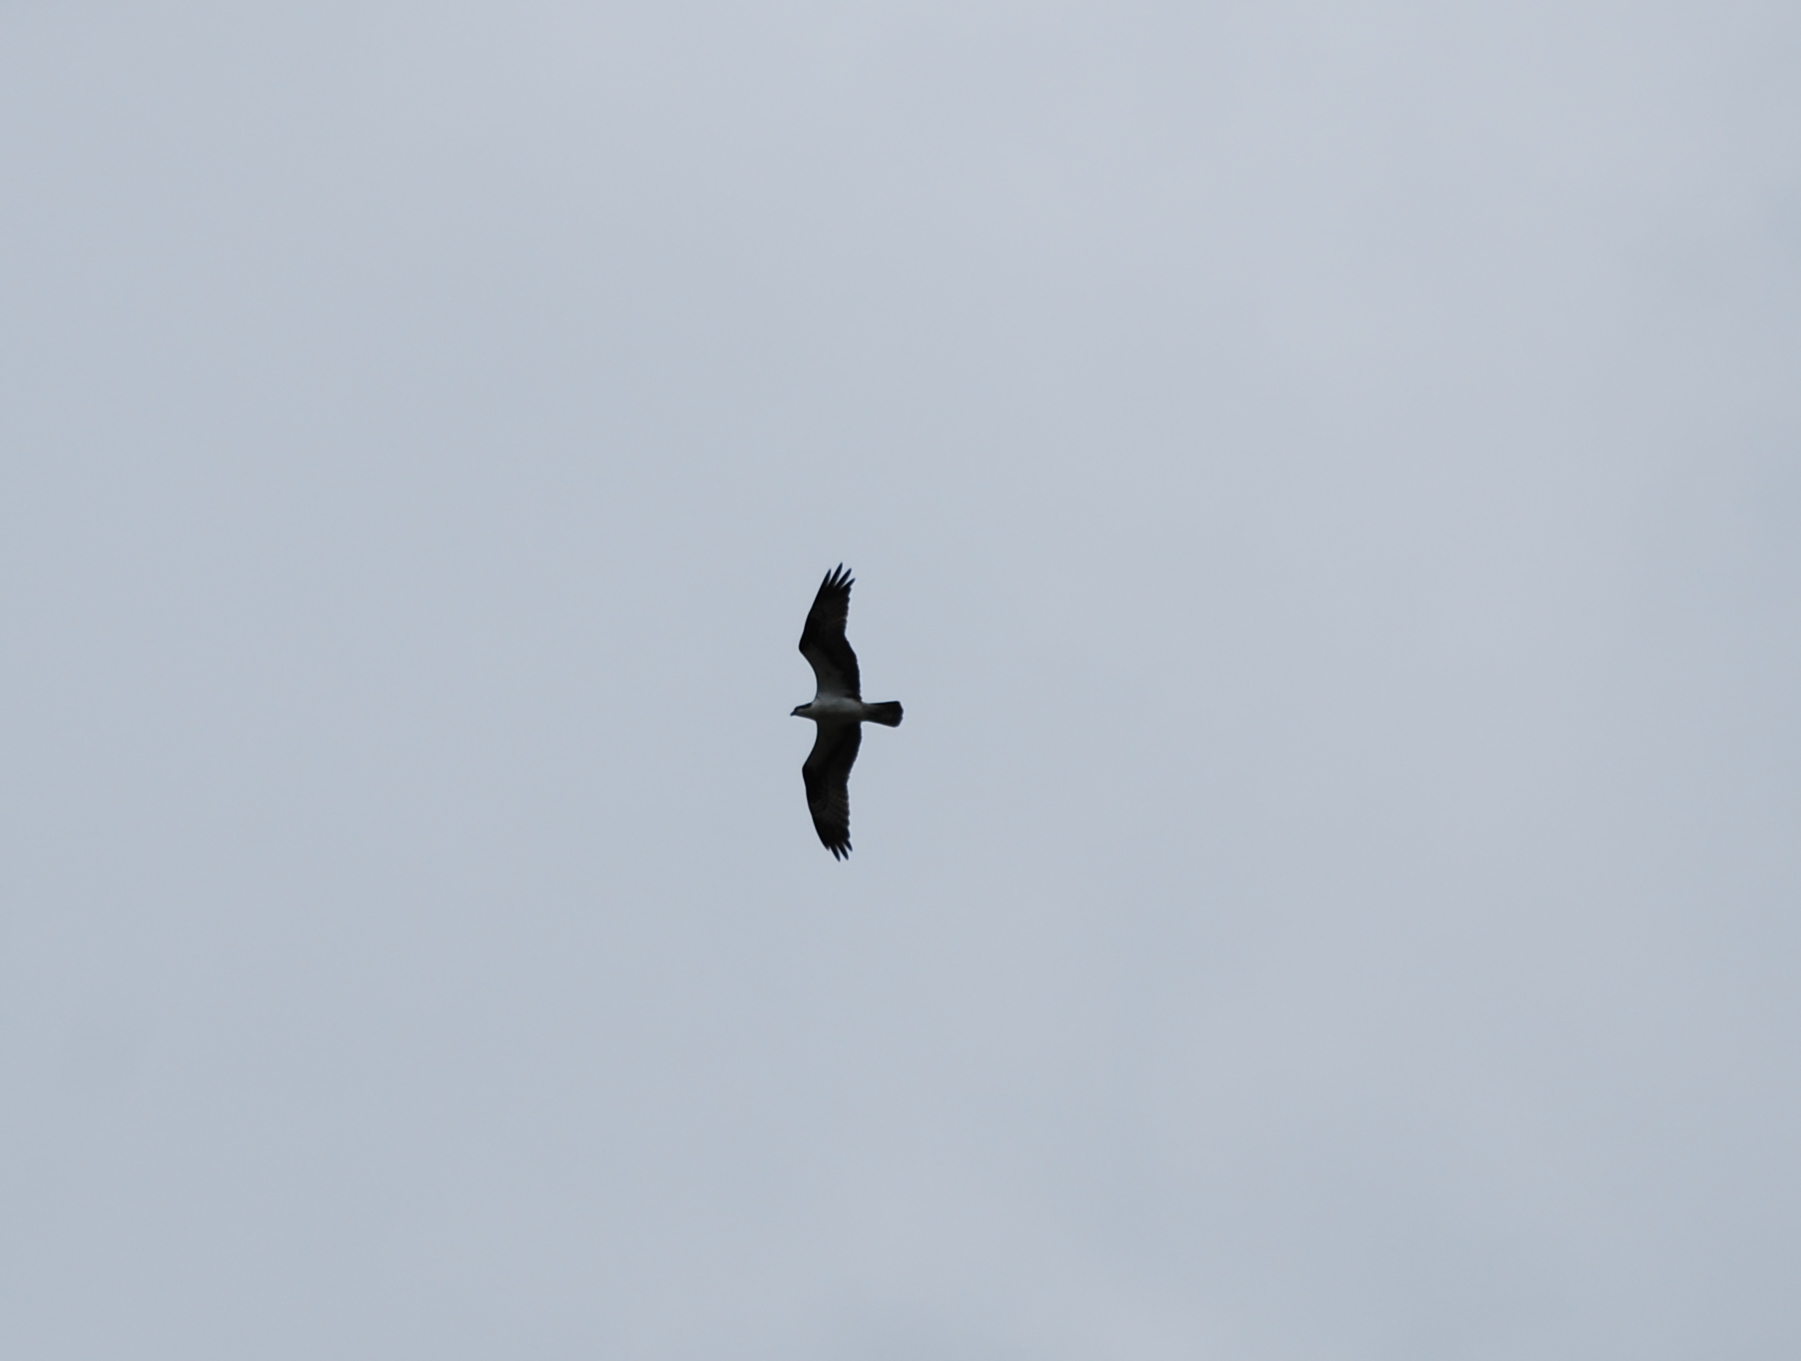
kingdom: Animalia
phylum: Chordata
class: Aves
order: Accipitriformes
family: Pandionidae
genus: Pandion
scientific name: Pandion haliaetus
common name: Osprey
